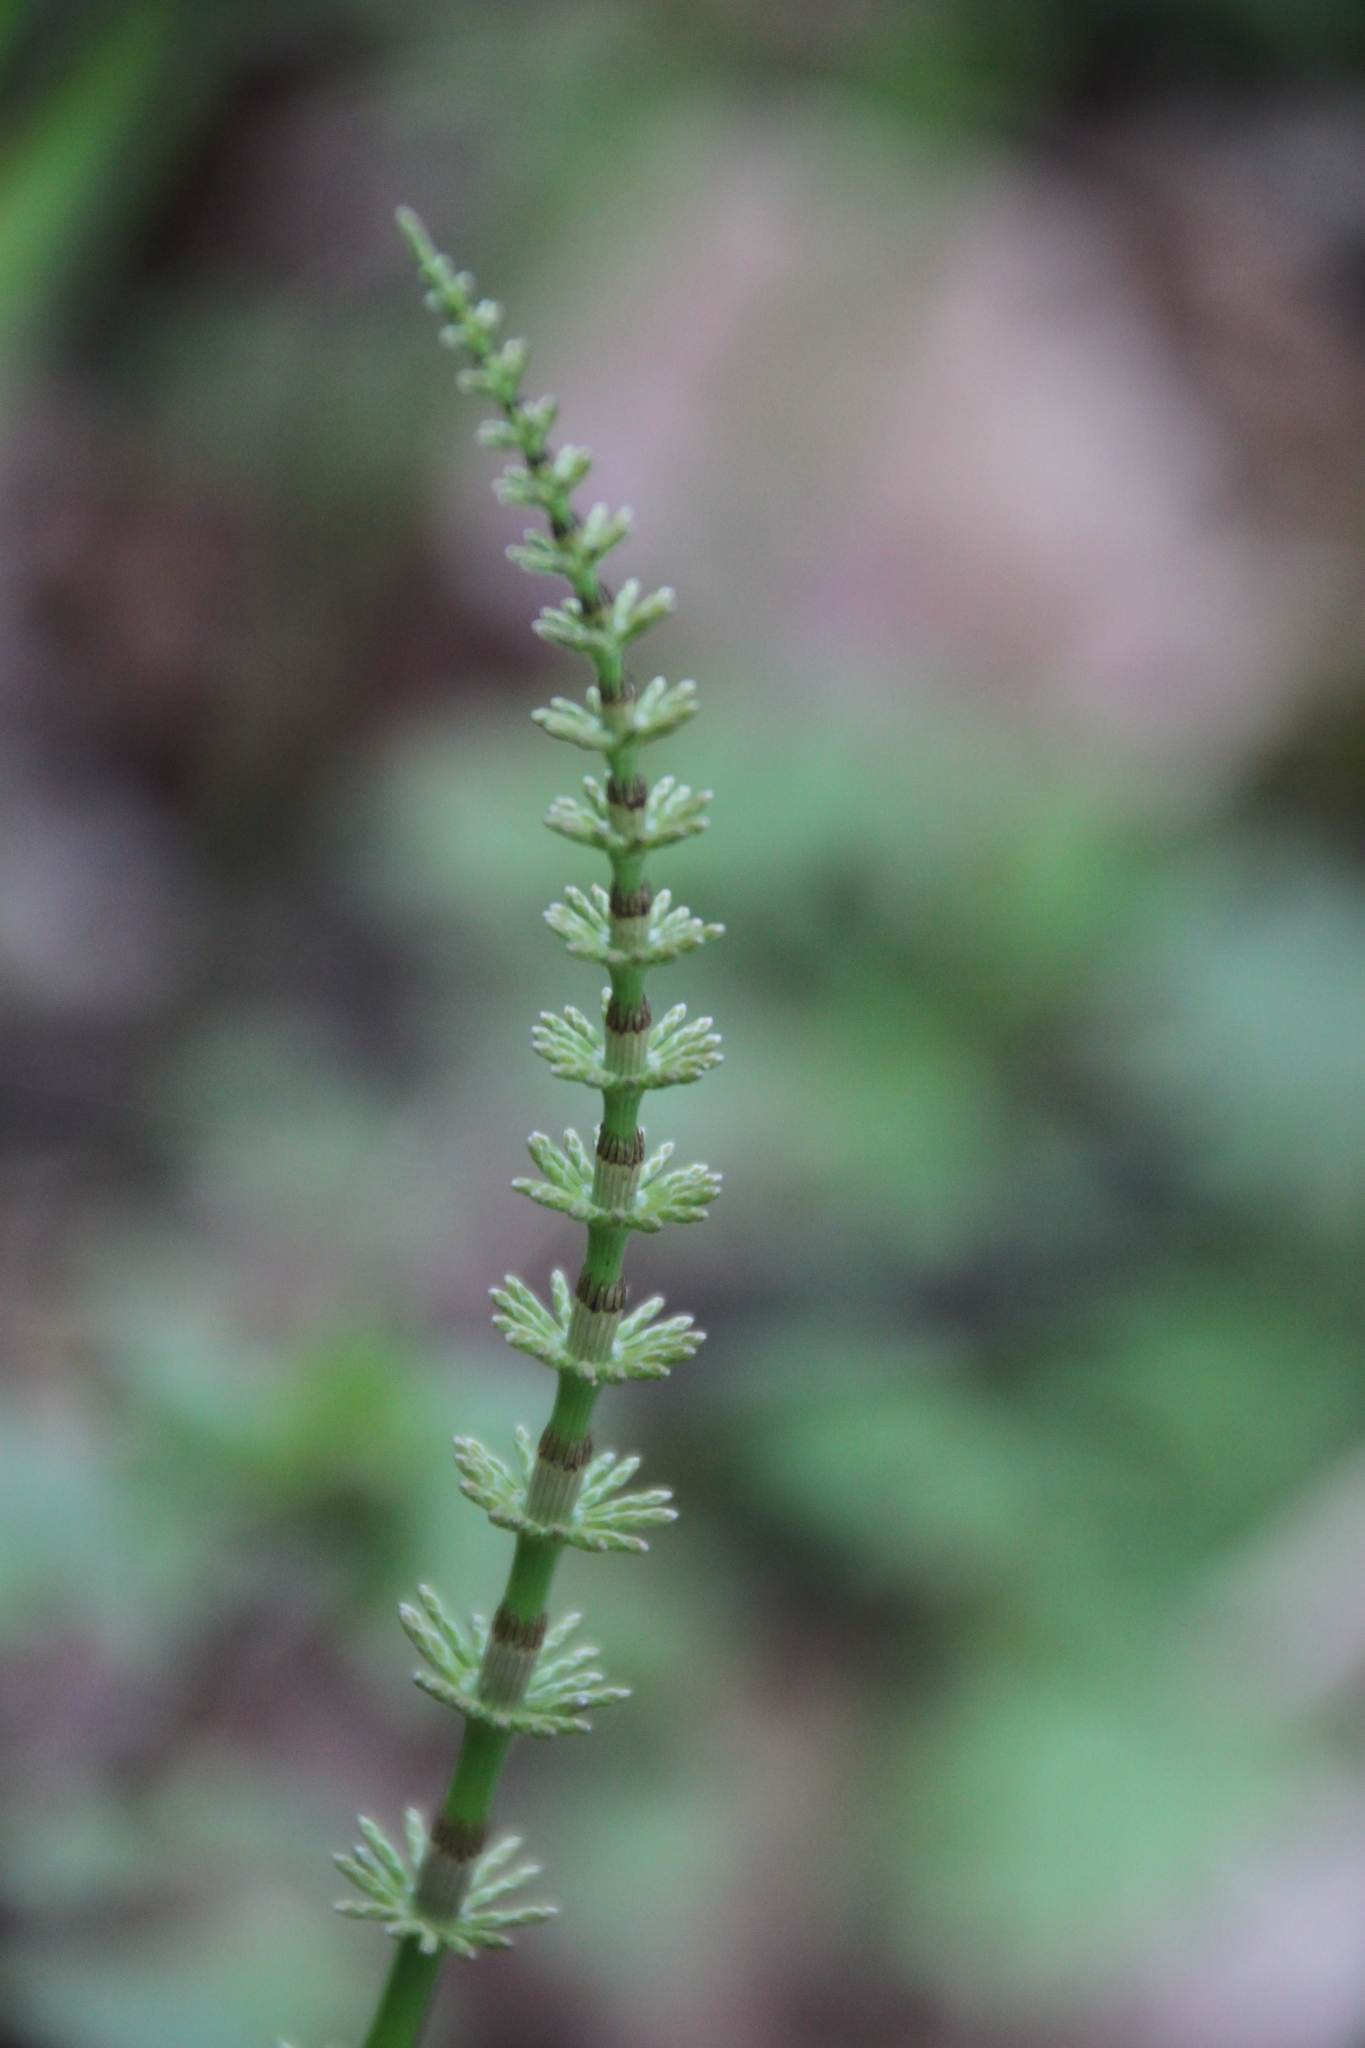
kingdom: Plantae
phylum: Tracheophyta
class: Polypodiopsida
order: Equisetales
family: Equisetaceae
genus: Equisetum
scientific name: Equisetum pratense
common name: Meadow horsetail
